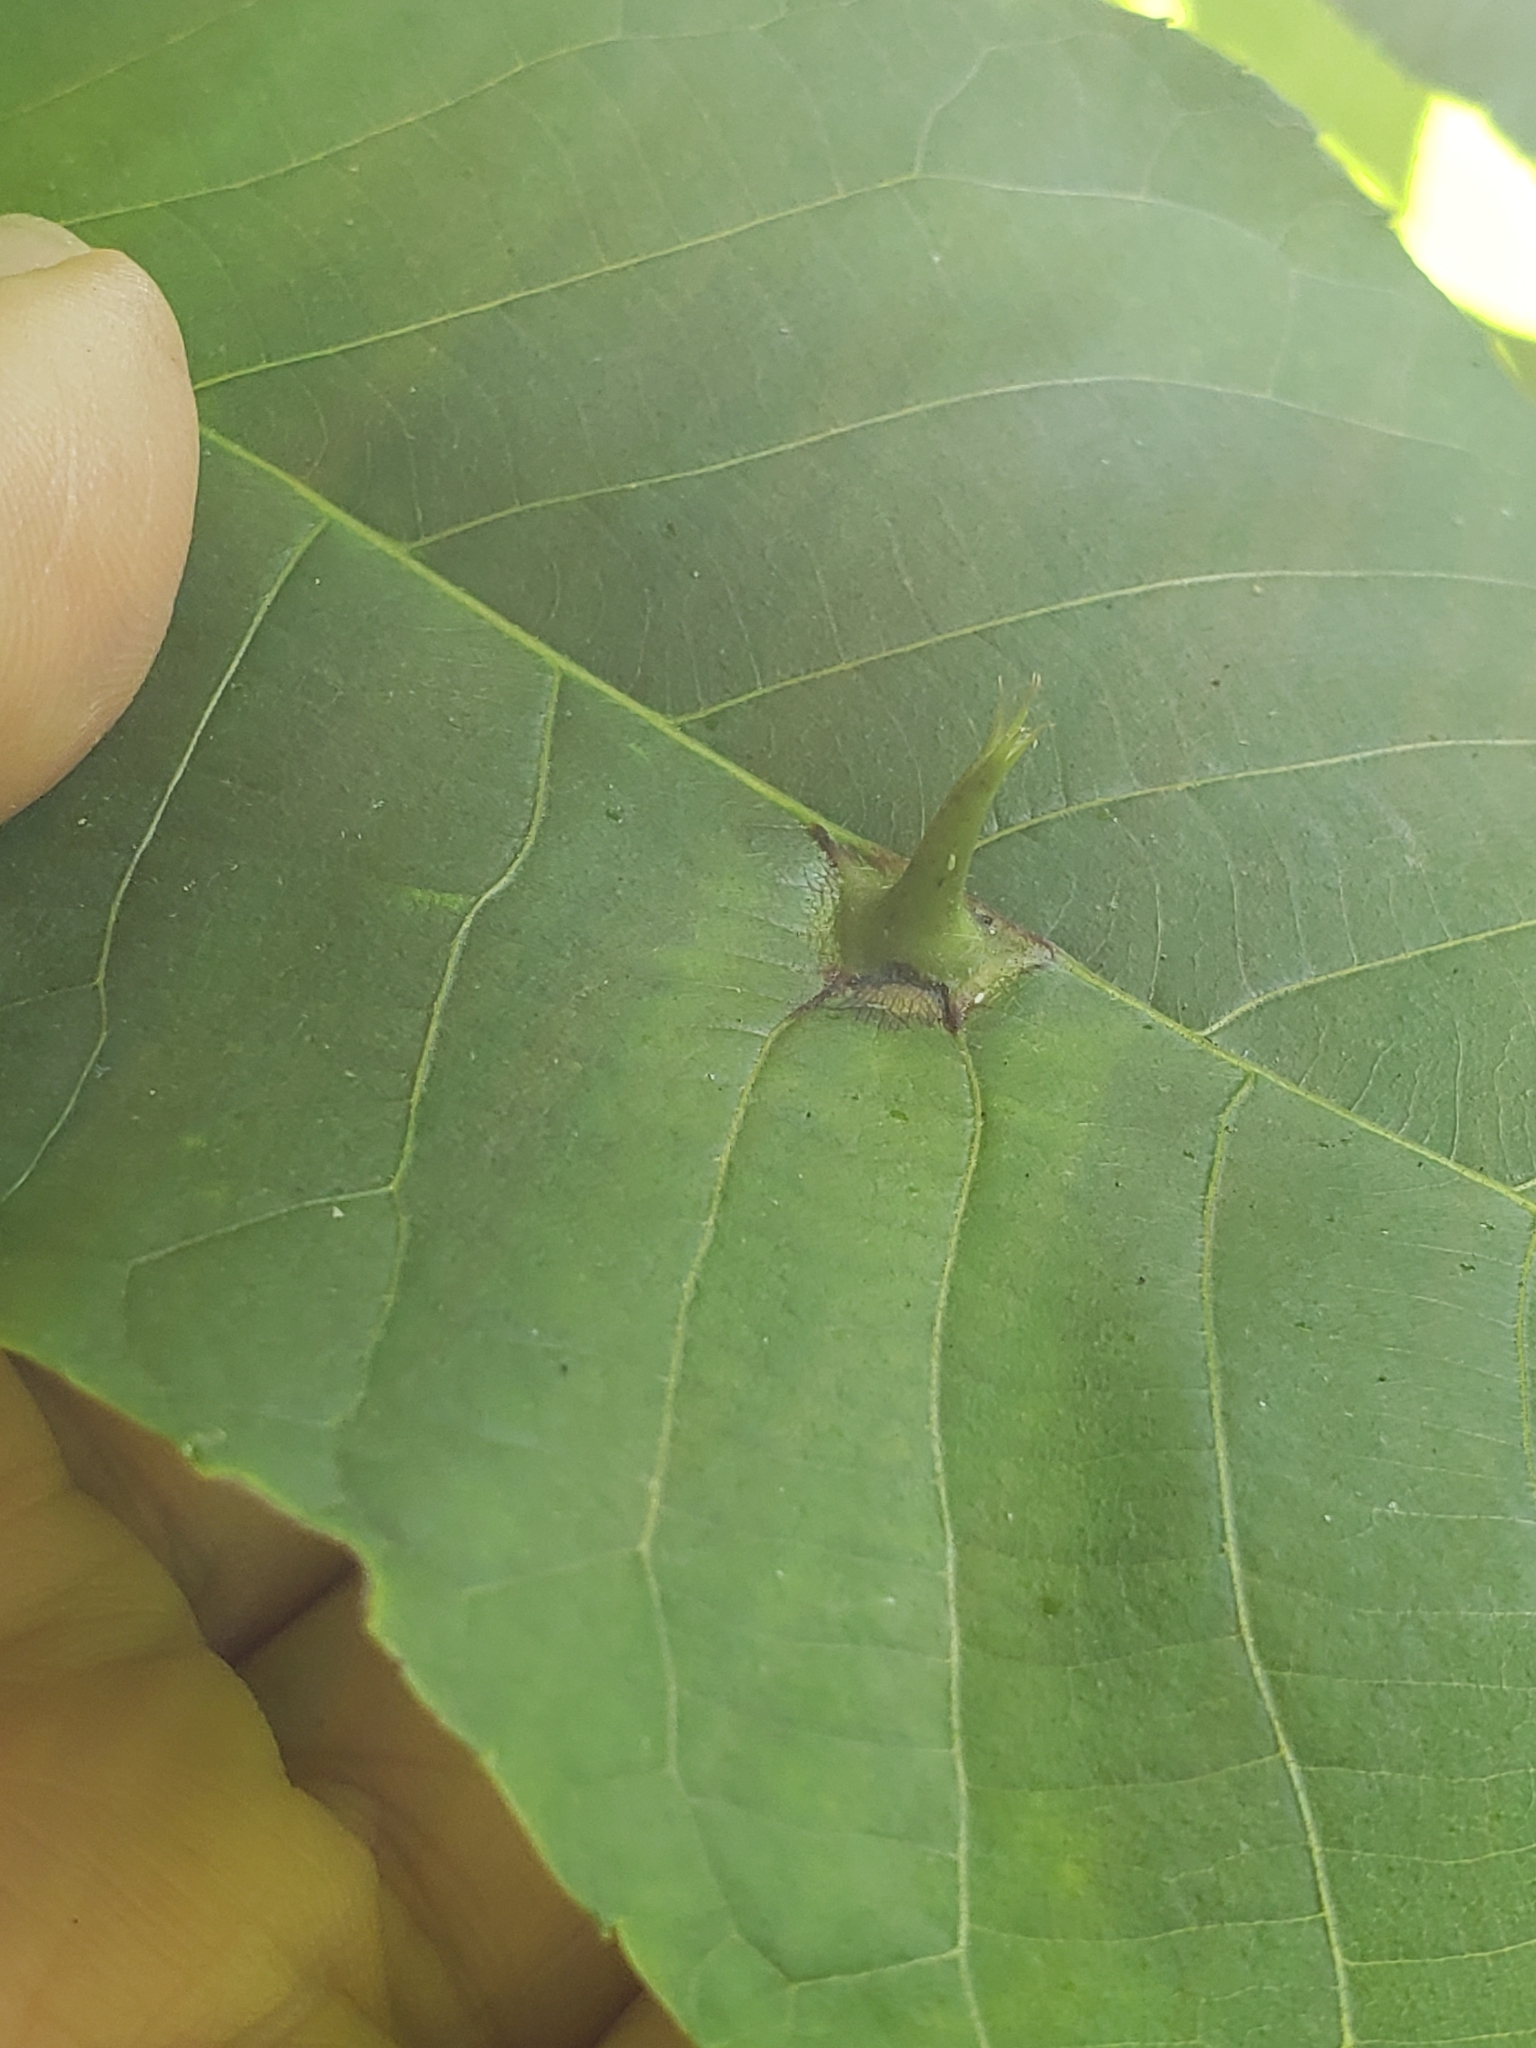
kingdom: Animalia
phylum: Arthropoda
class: Insecta
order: Hemiptera
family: Phylloxeridae
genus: Phylloxera
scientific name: Phylloxera caryaesepta
